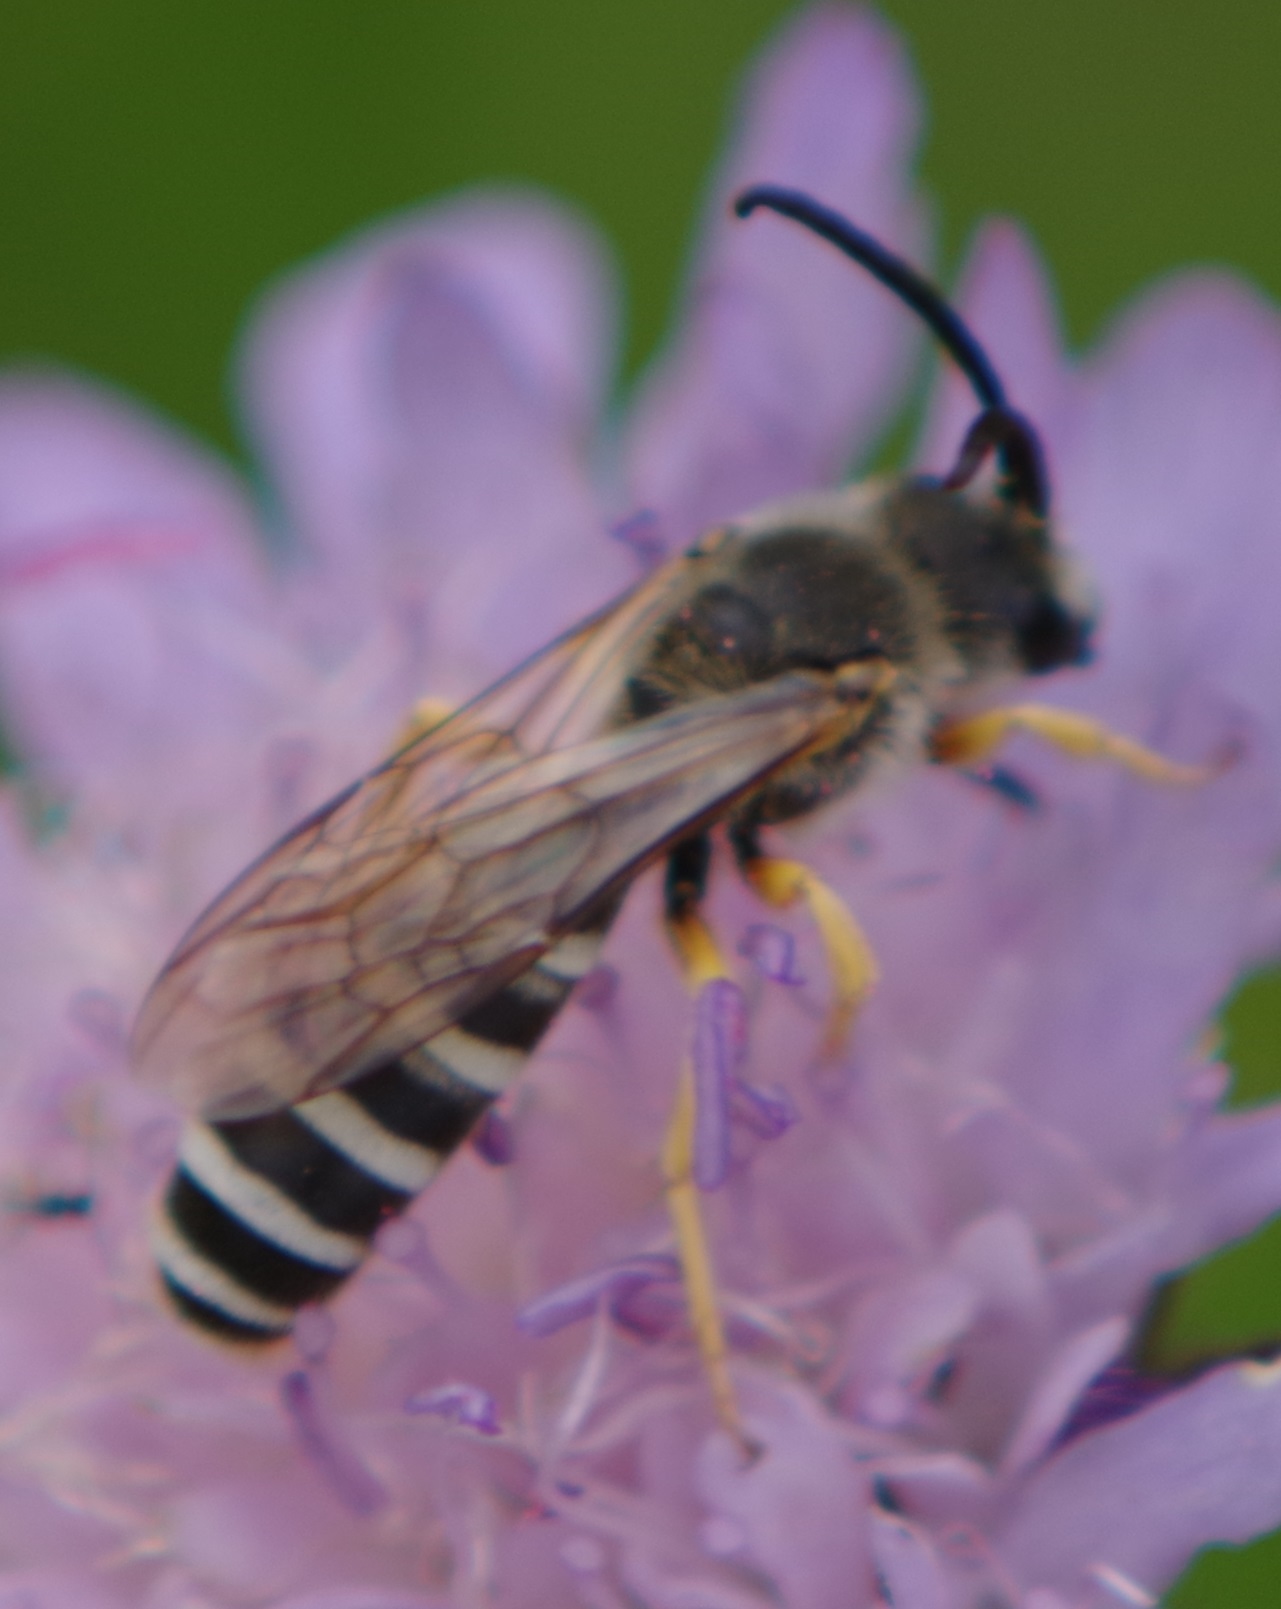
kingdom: Animalia
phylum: Arthropoda
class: Insecta
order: Hymenoptera
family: Halictidae
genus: Halictus
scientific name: Halictus scabiosae
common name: Great banded furrow bee
